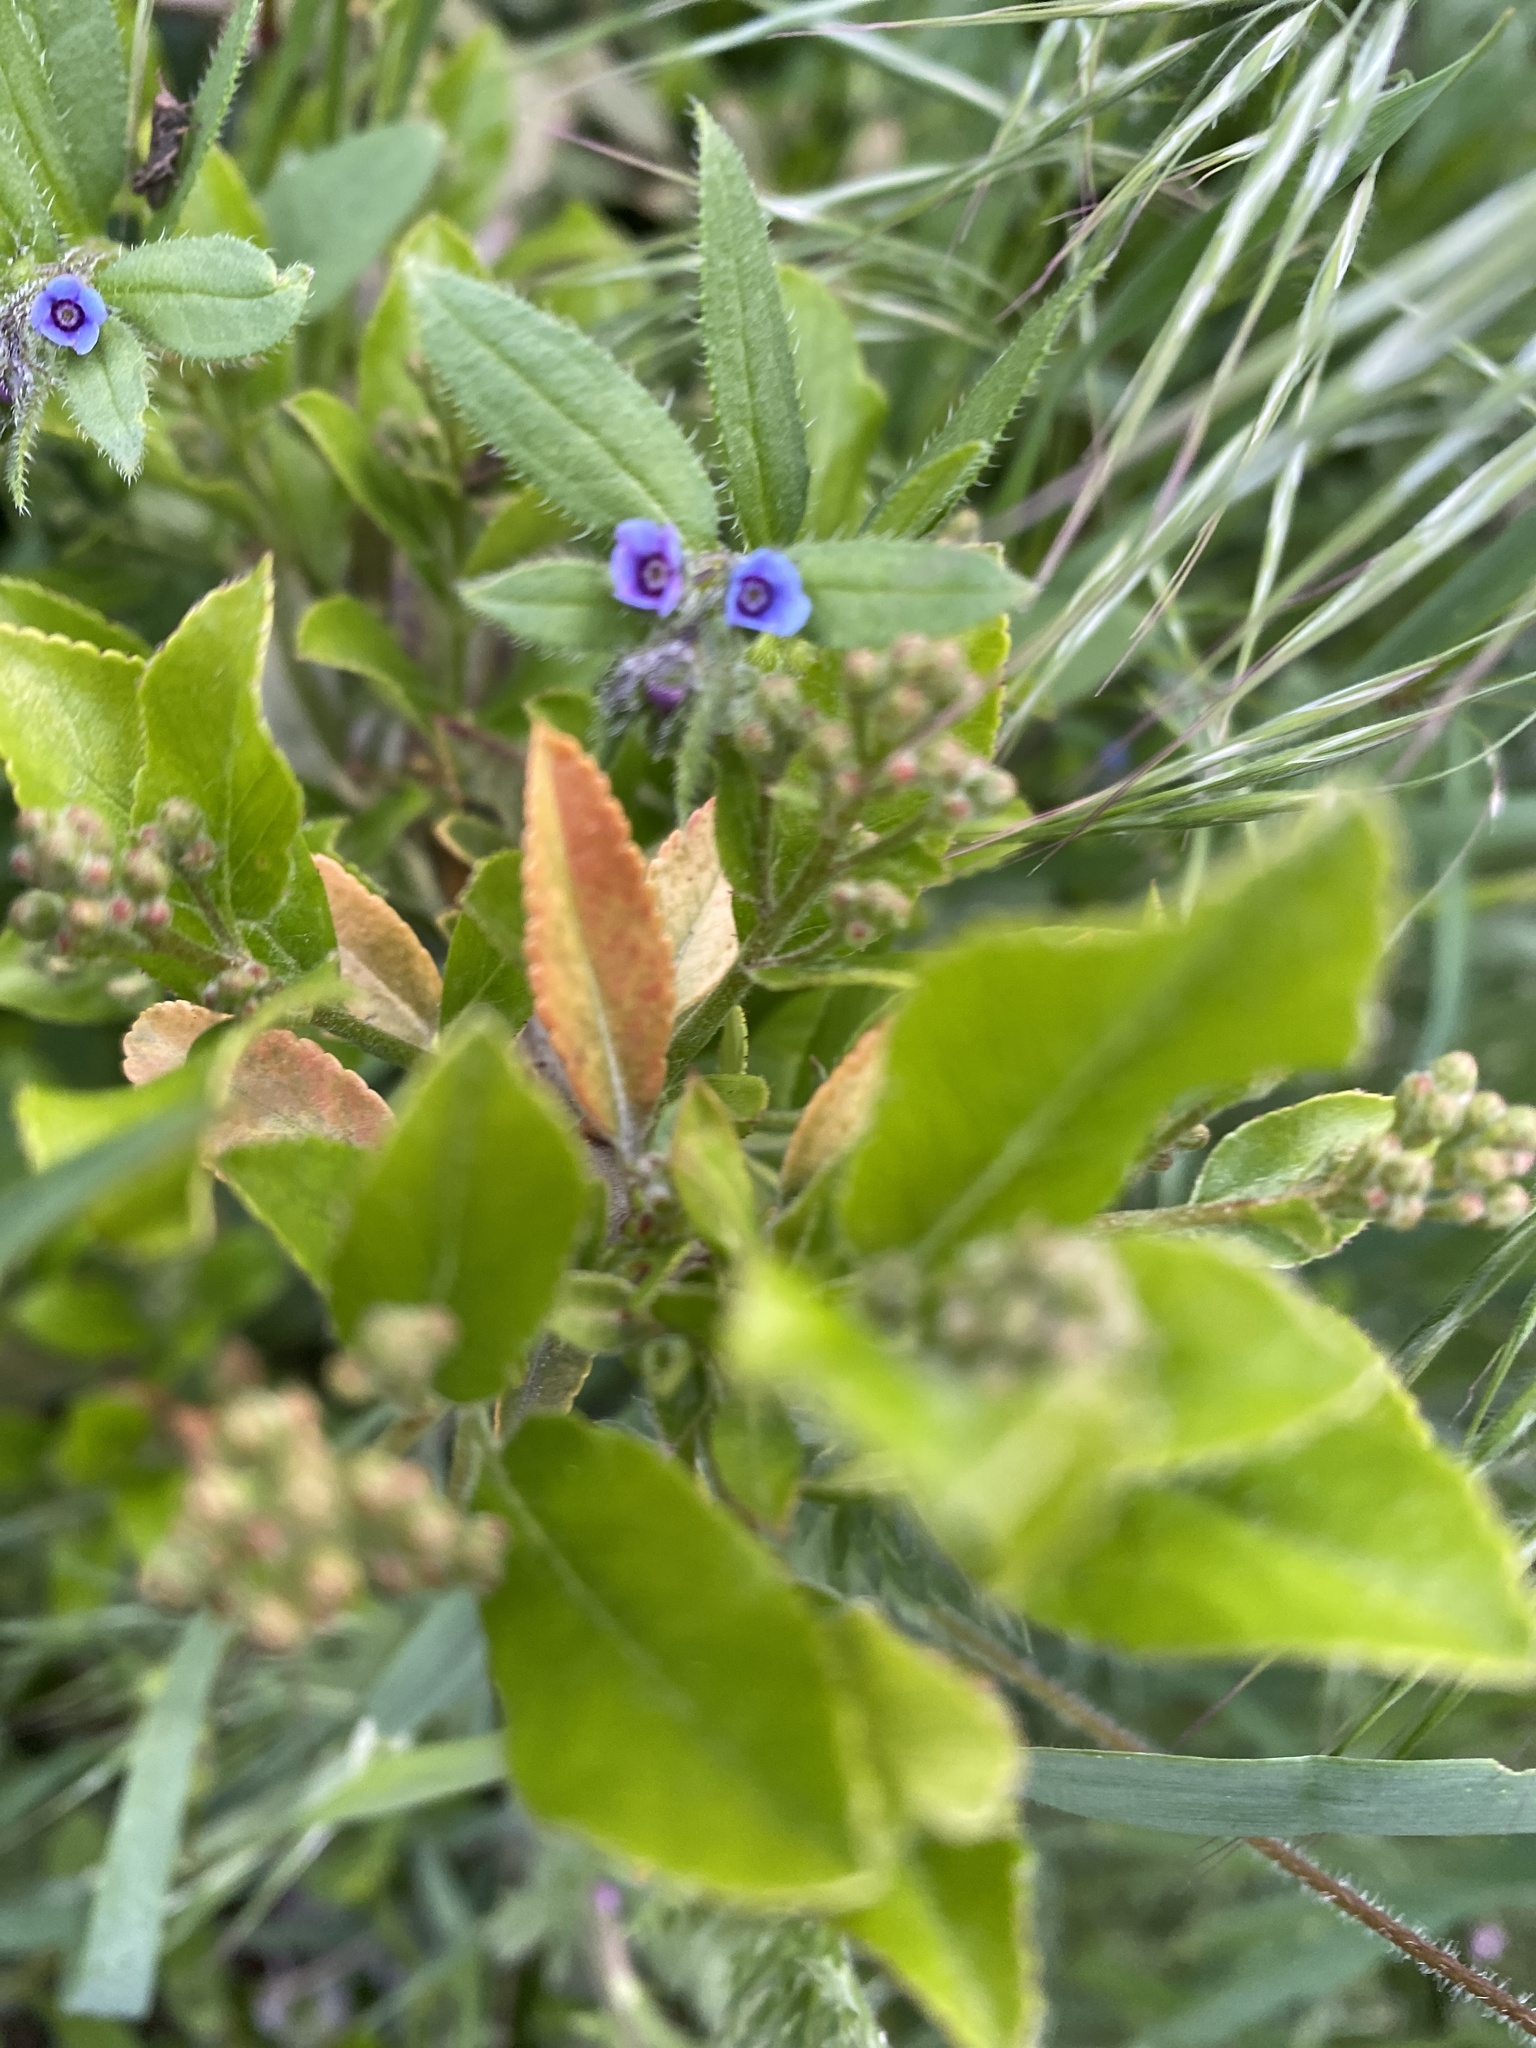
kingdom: Plantae
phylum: Tracheophyta
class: Magnoliopsida
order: Boraginales
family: Boraginaceae
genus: Asperugo
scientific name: Asperugo procumbens
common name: Madwort
